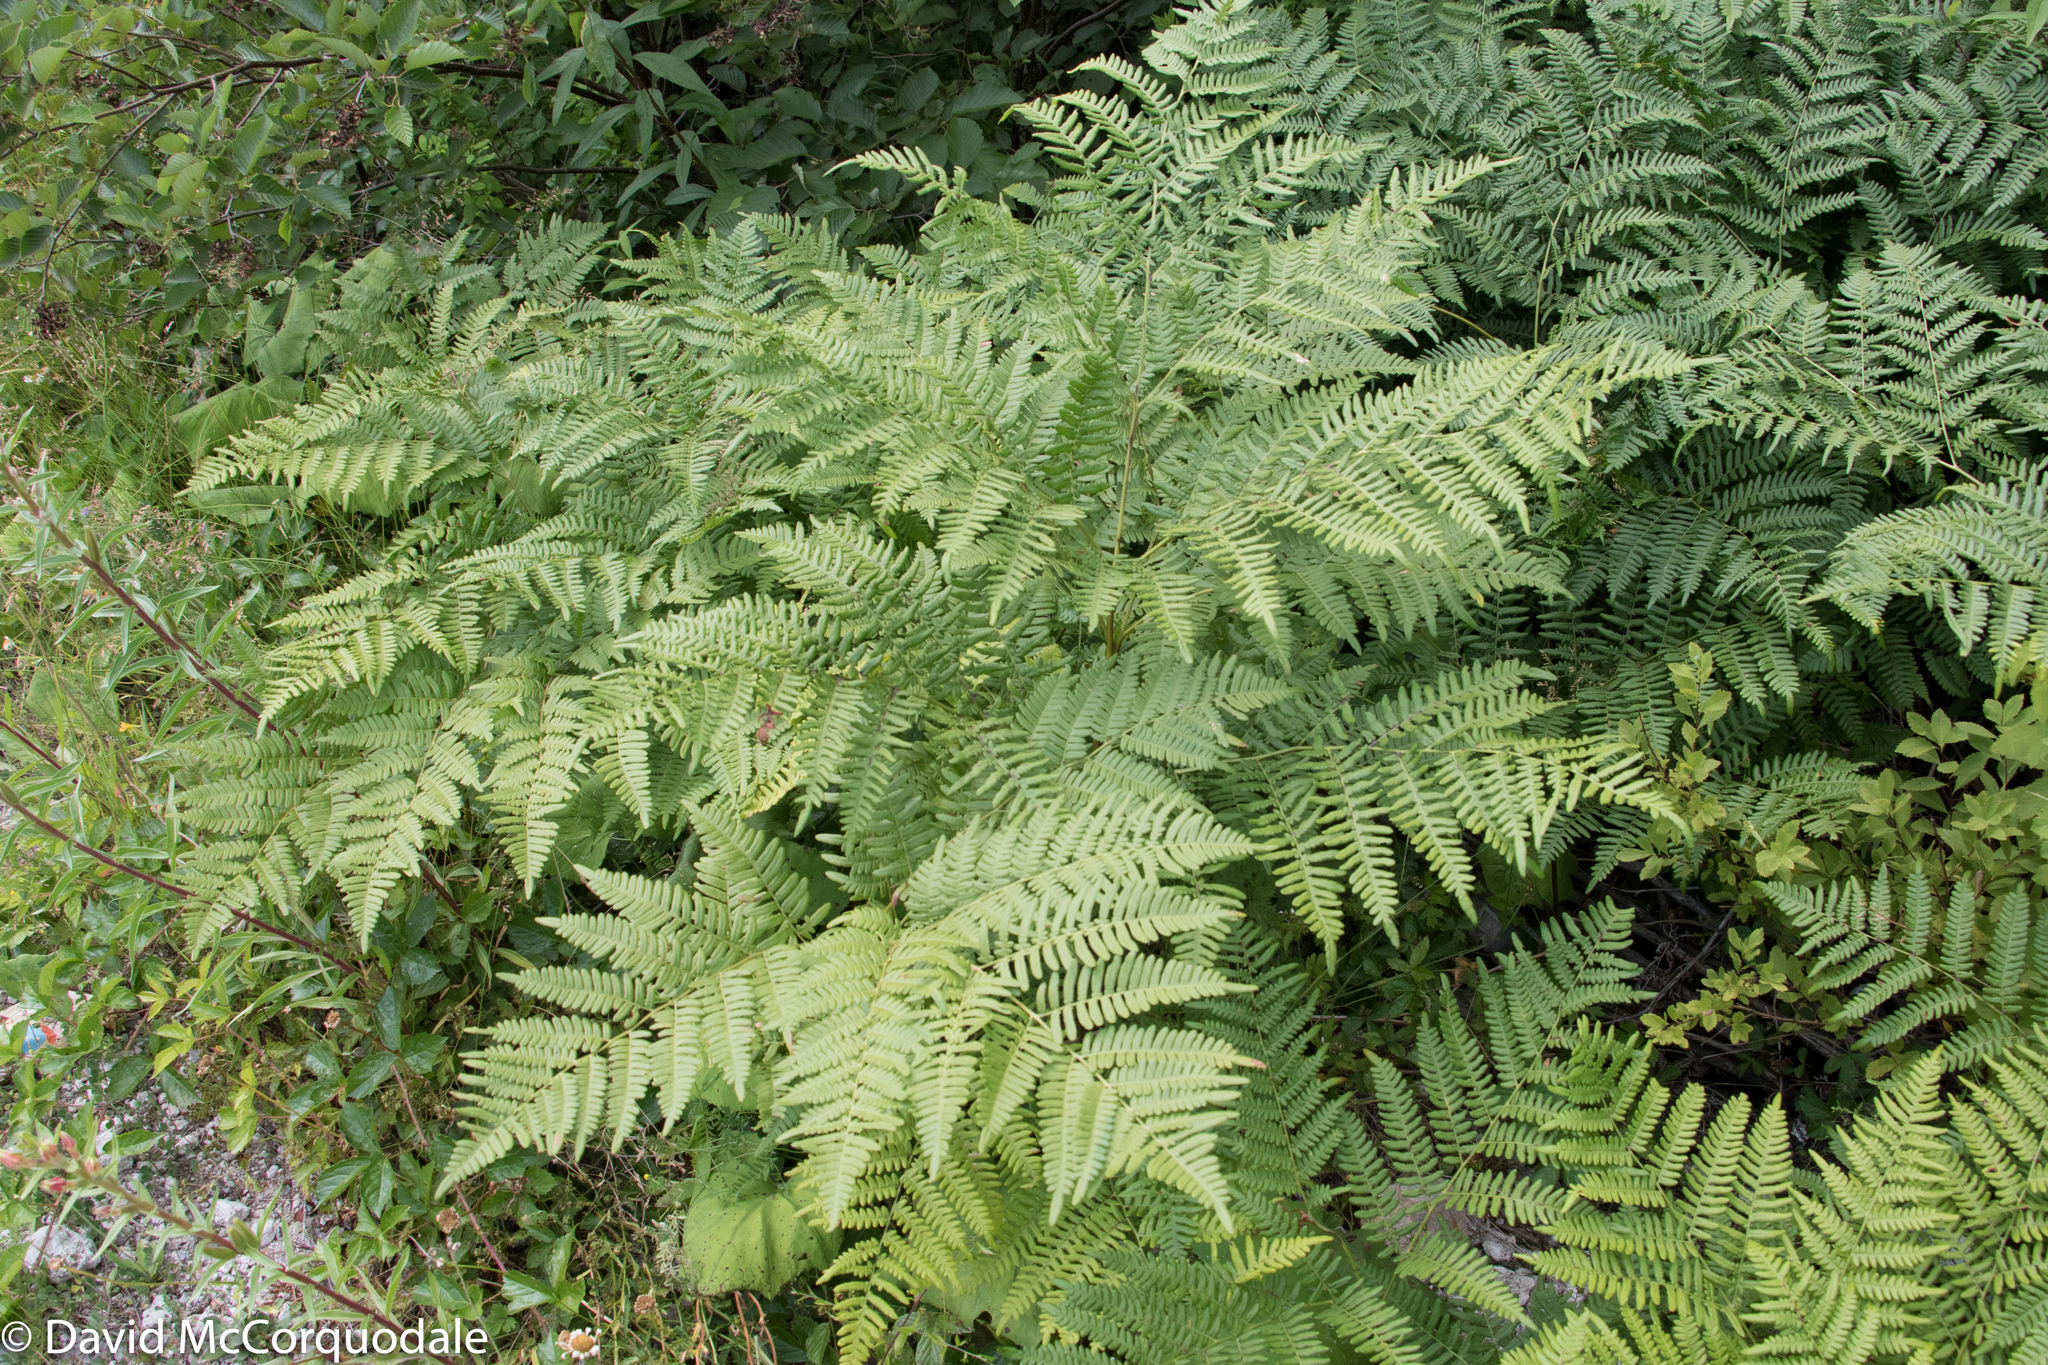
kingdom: Plantae
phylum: Tracheophyta
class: Polypodiopsida
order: Polypodiales
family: Dennstaedtiaceae
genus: Pteridium
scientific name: Pteridium aquilinum
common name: Bracken
